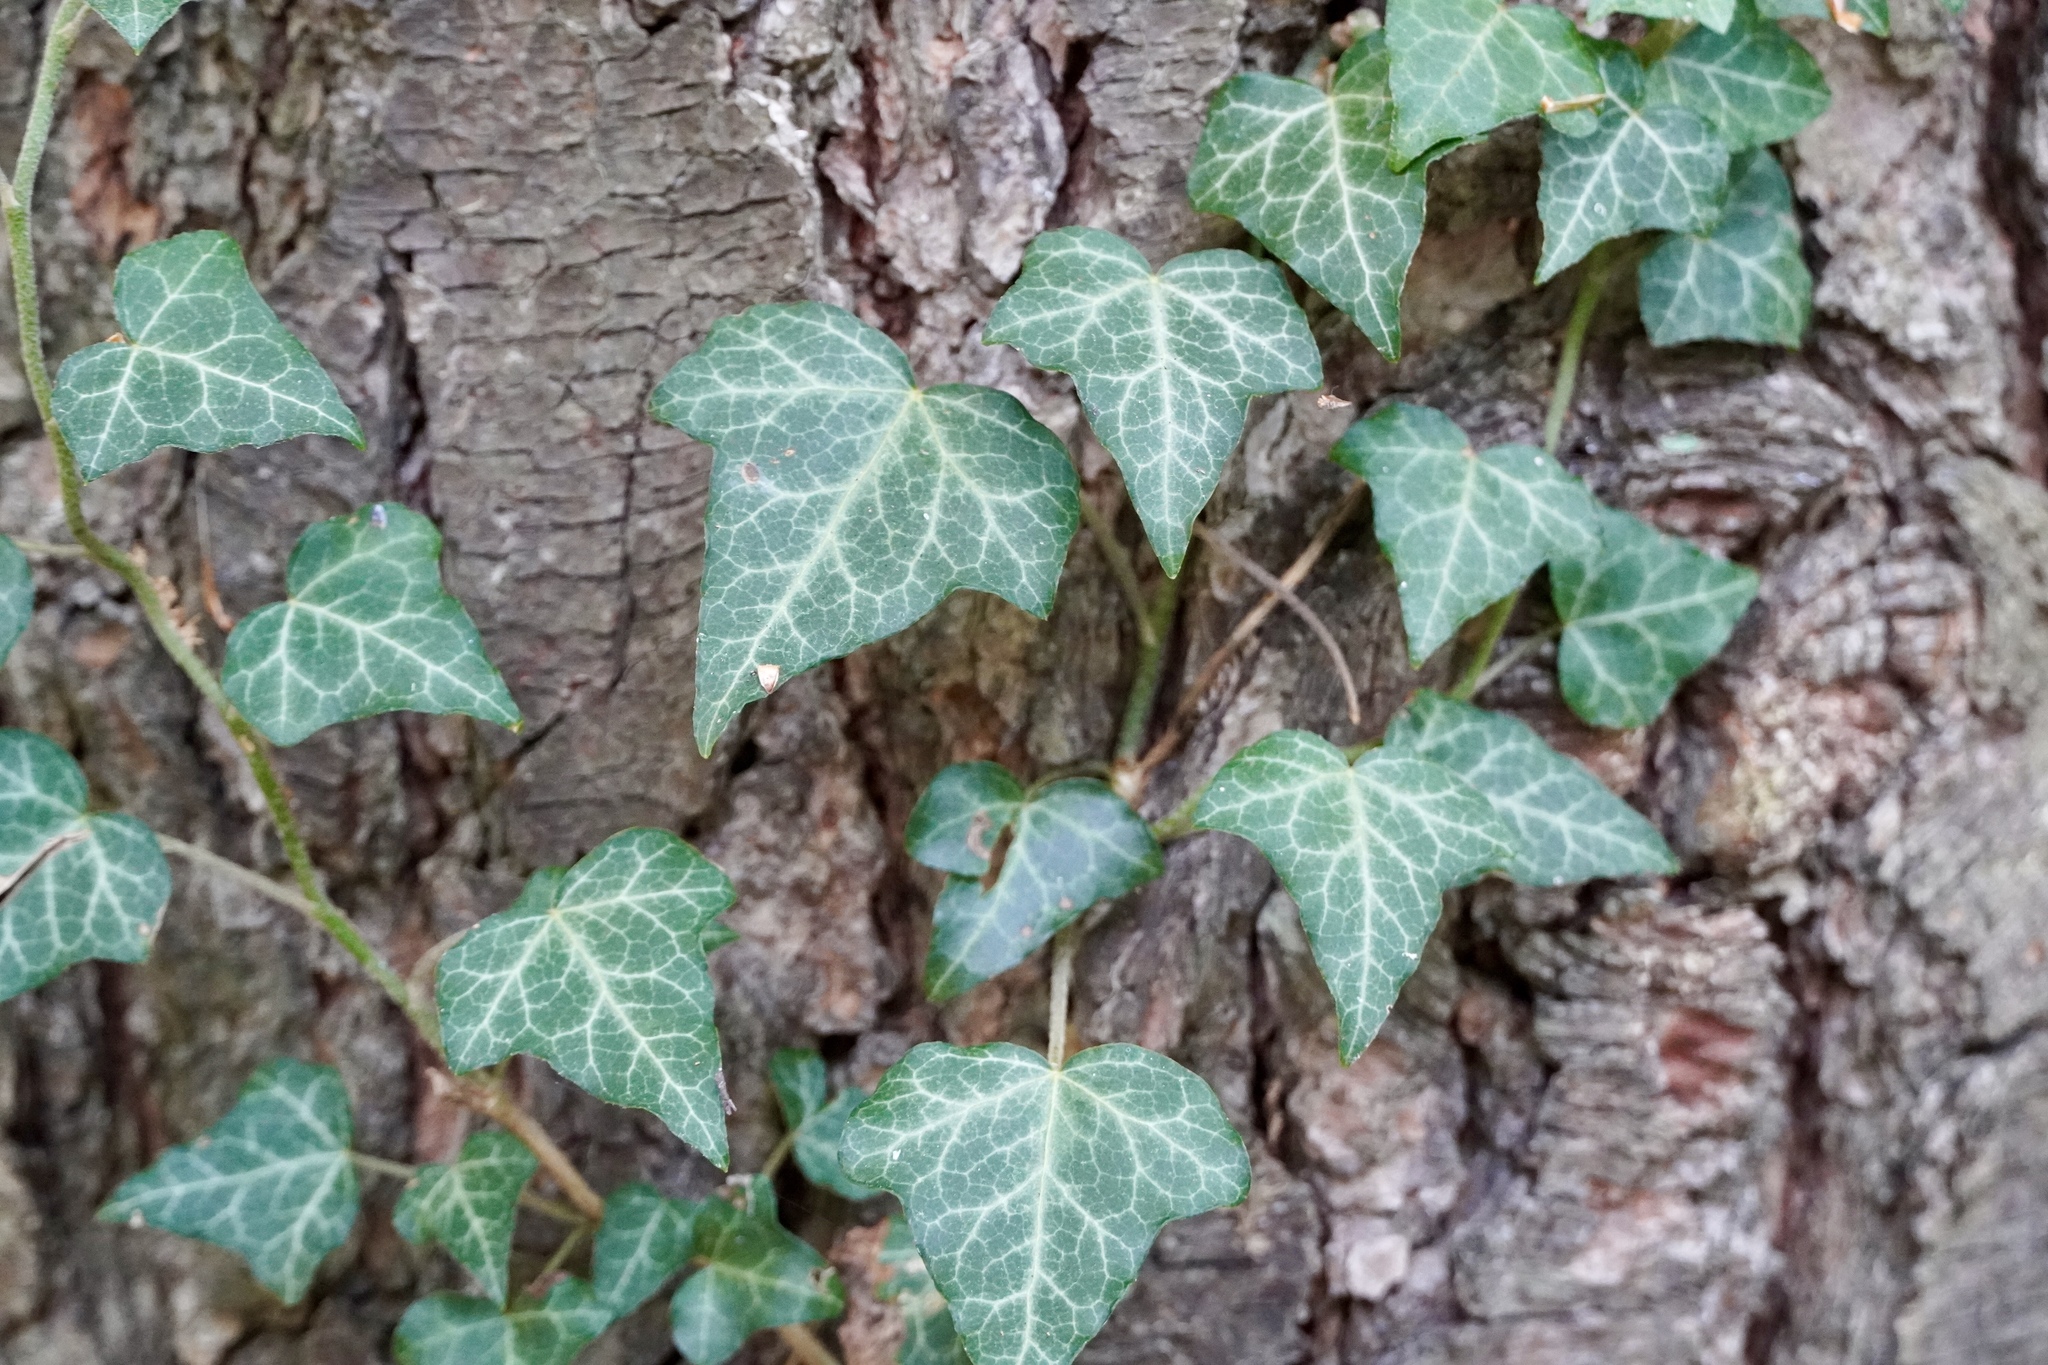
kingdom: Plantae
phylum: Tracheophyta
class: Magnoliopsida
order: Apiales
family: Araliaceae
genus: Hedera
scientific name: Hedera helix
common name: Ivy
